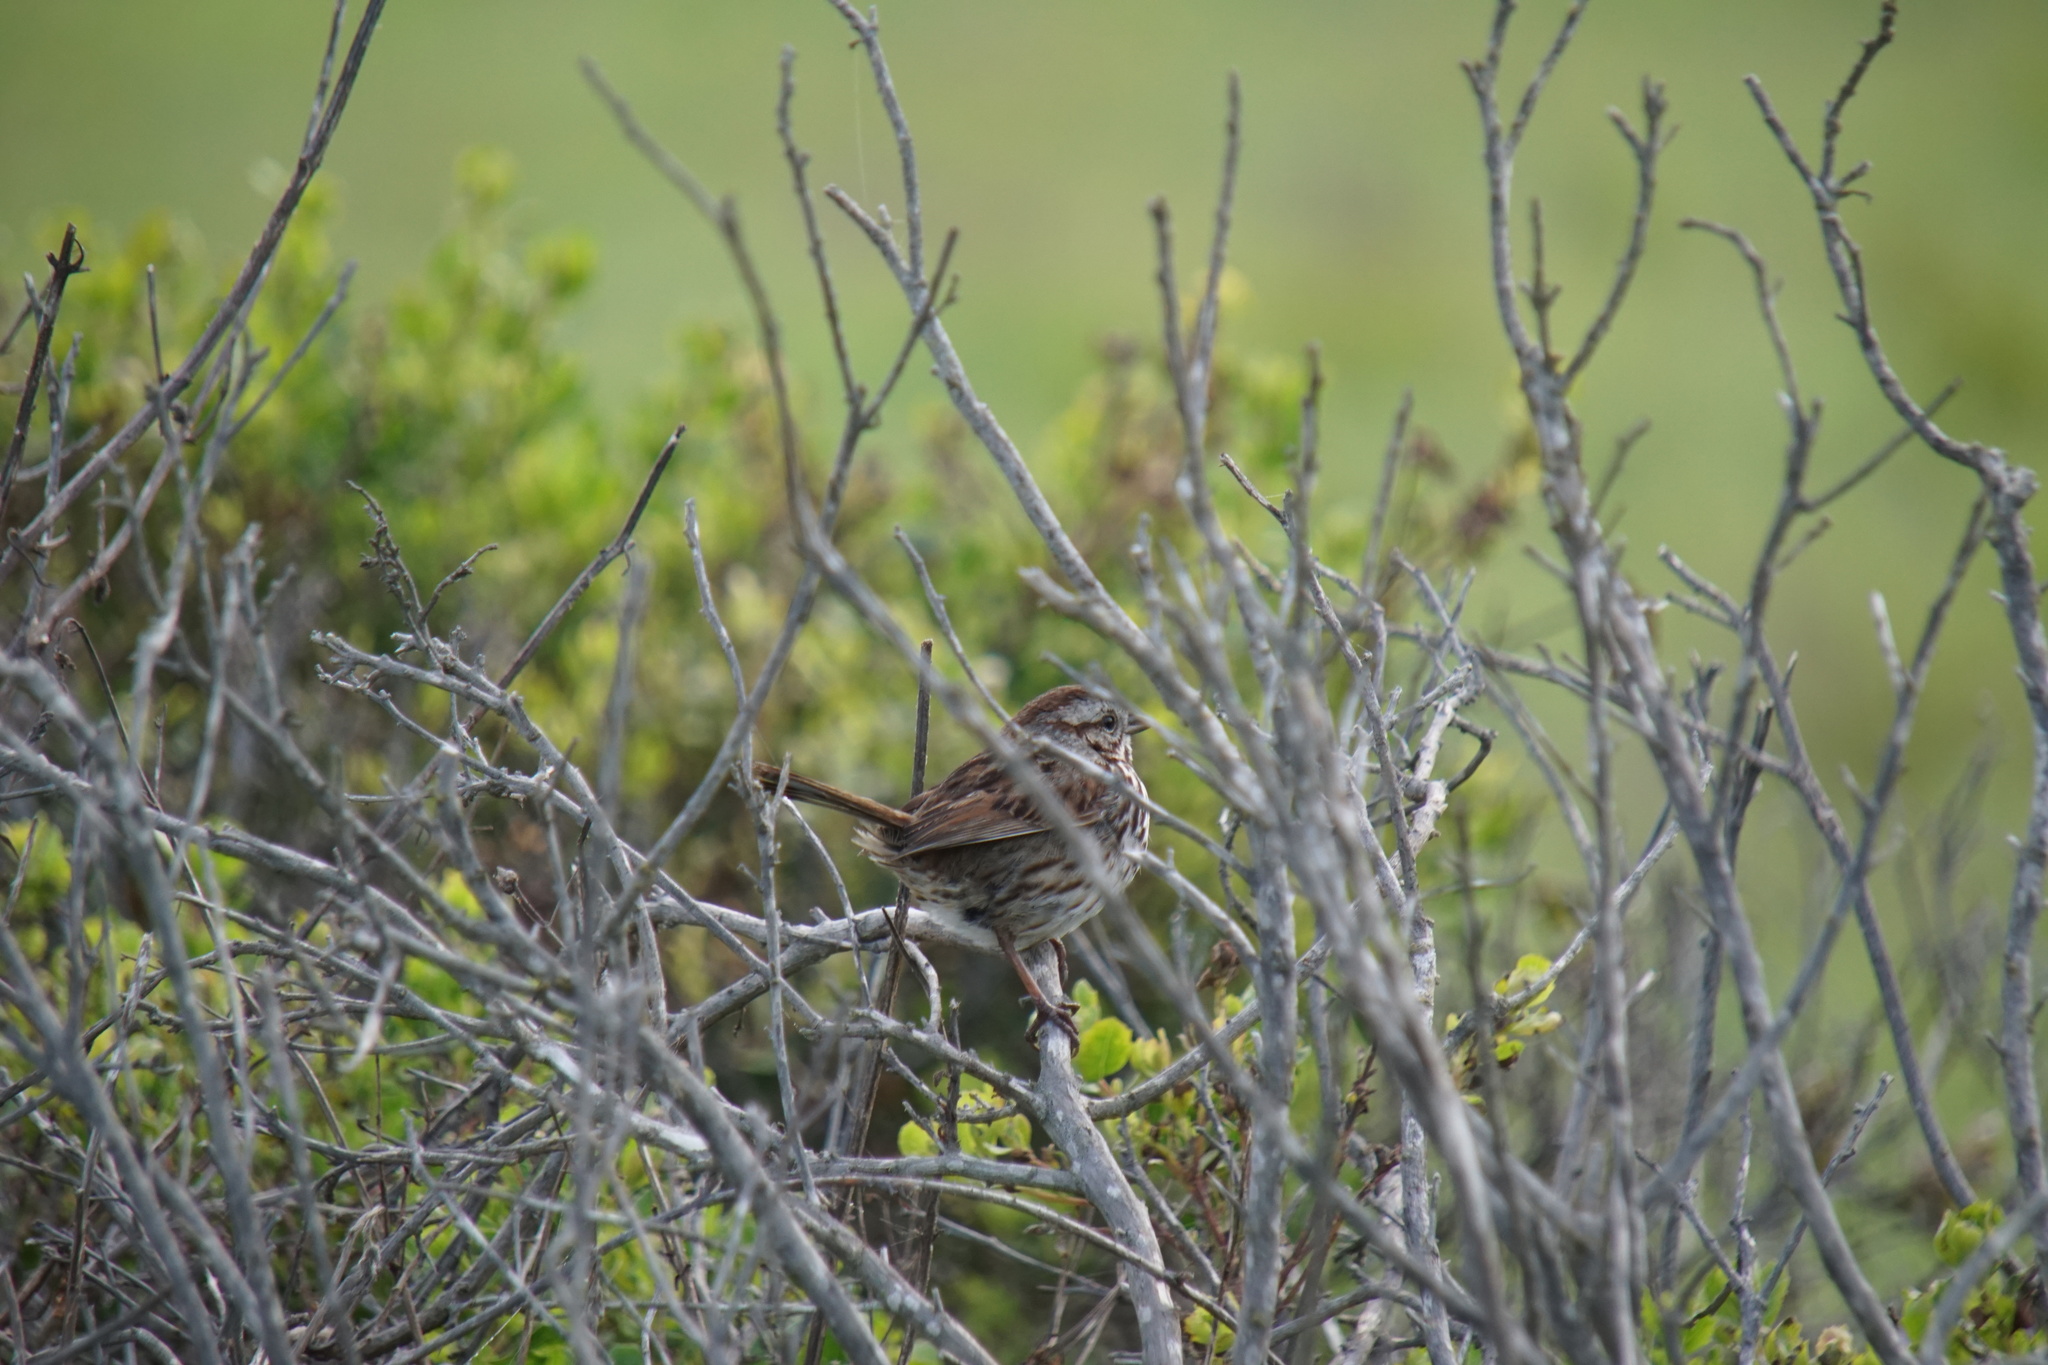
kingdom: Animalia
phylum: Chordata
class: Aves
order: Passeriformes
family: Passerellidae
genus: Melospiza
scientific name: Melospiza melodia
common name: Song sparrow
